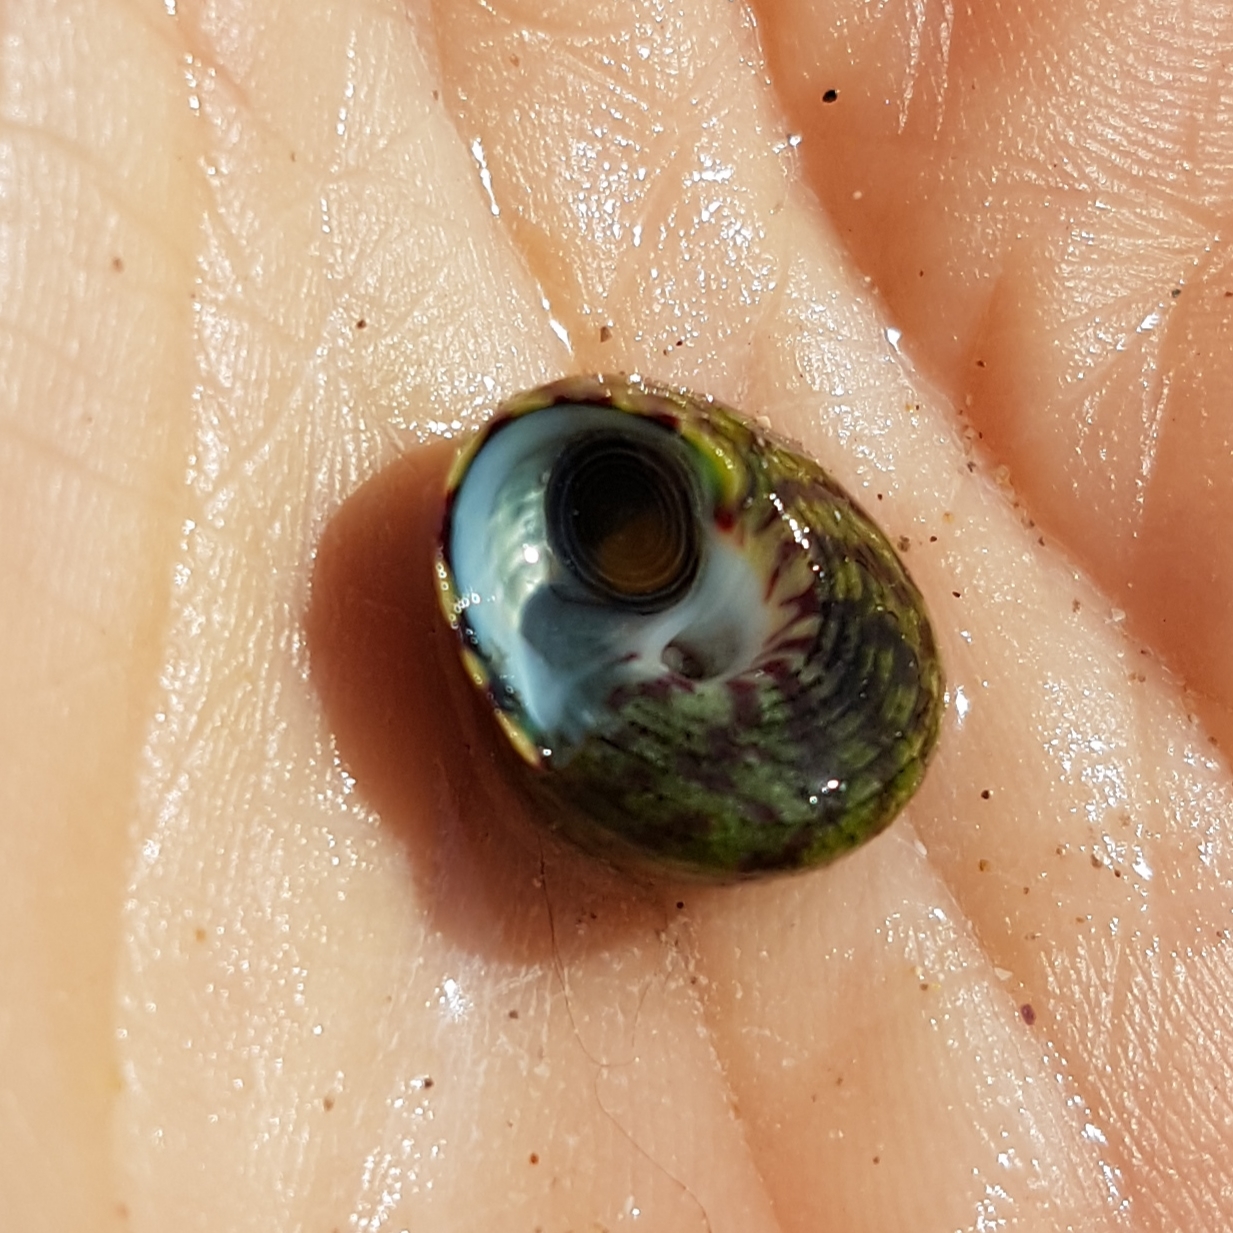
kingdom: Animalia
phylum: Mollusca
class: Gastropoda
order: Trochida
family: Trochidae
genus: Steromphala
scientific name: Steromphala umbilicalis
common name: Flat top shell
